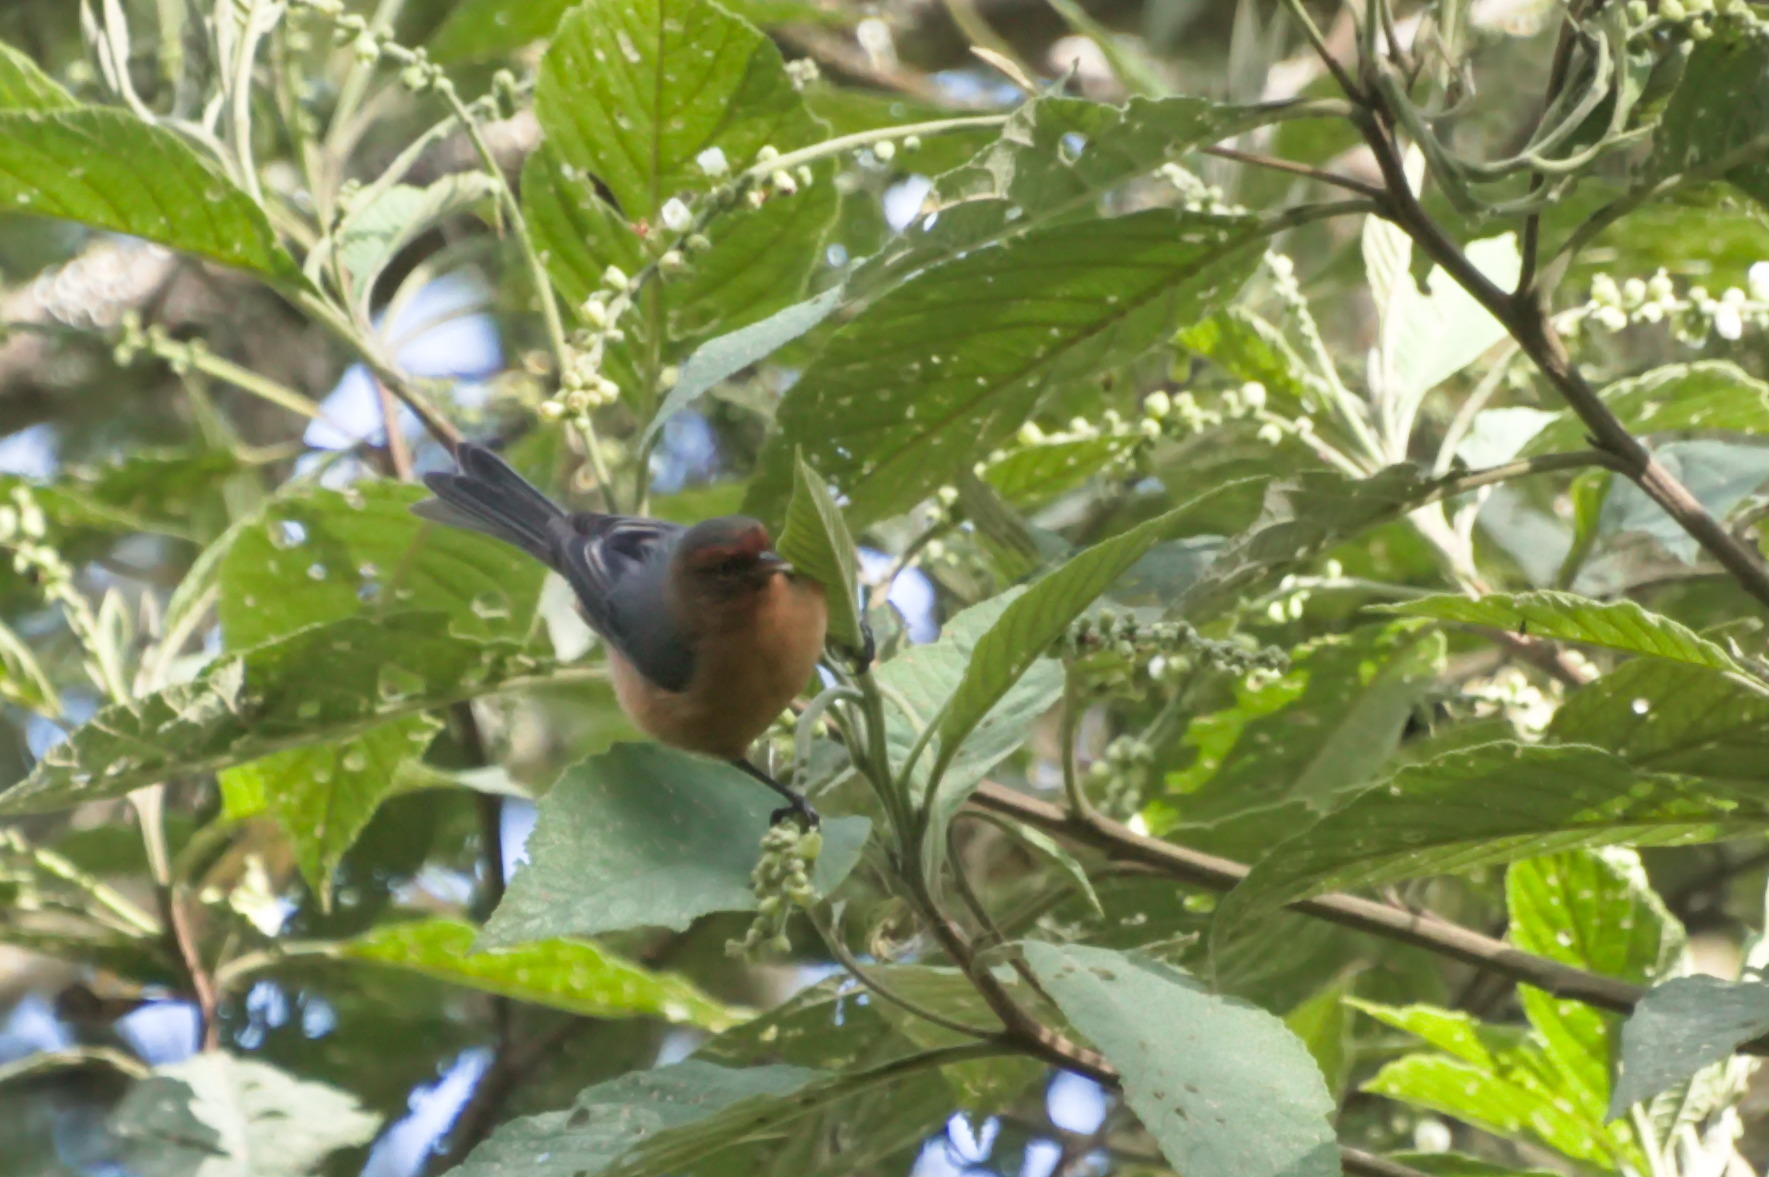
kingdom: Animalia
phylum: Chordata
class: Aves
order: Passeriformes
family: Thraupidae
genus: Conirostrum
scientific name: Conirostrum rufum
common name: Rufous-browed conebill
